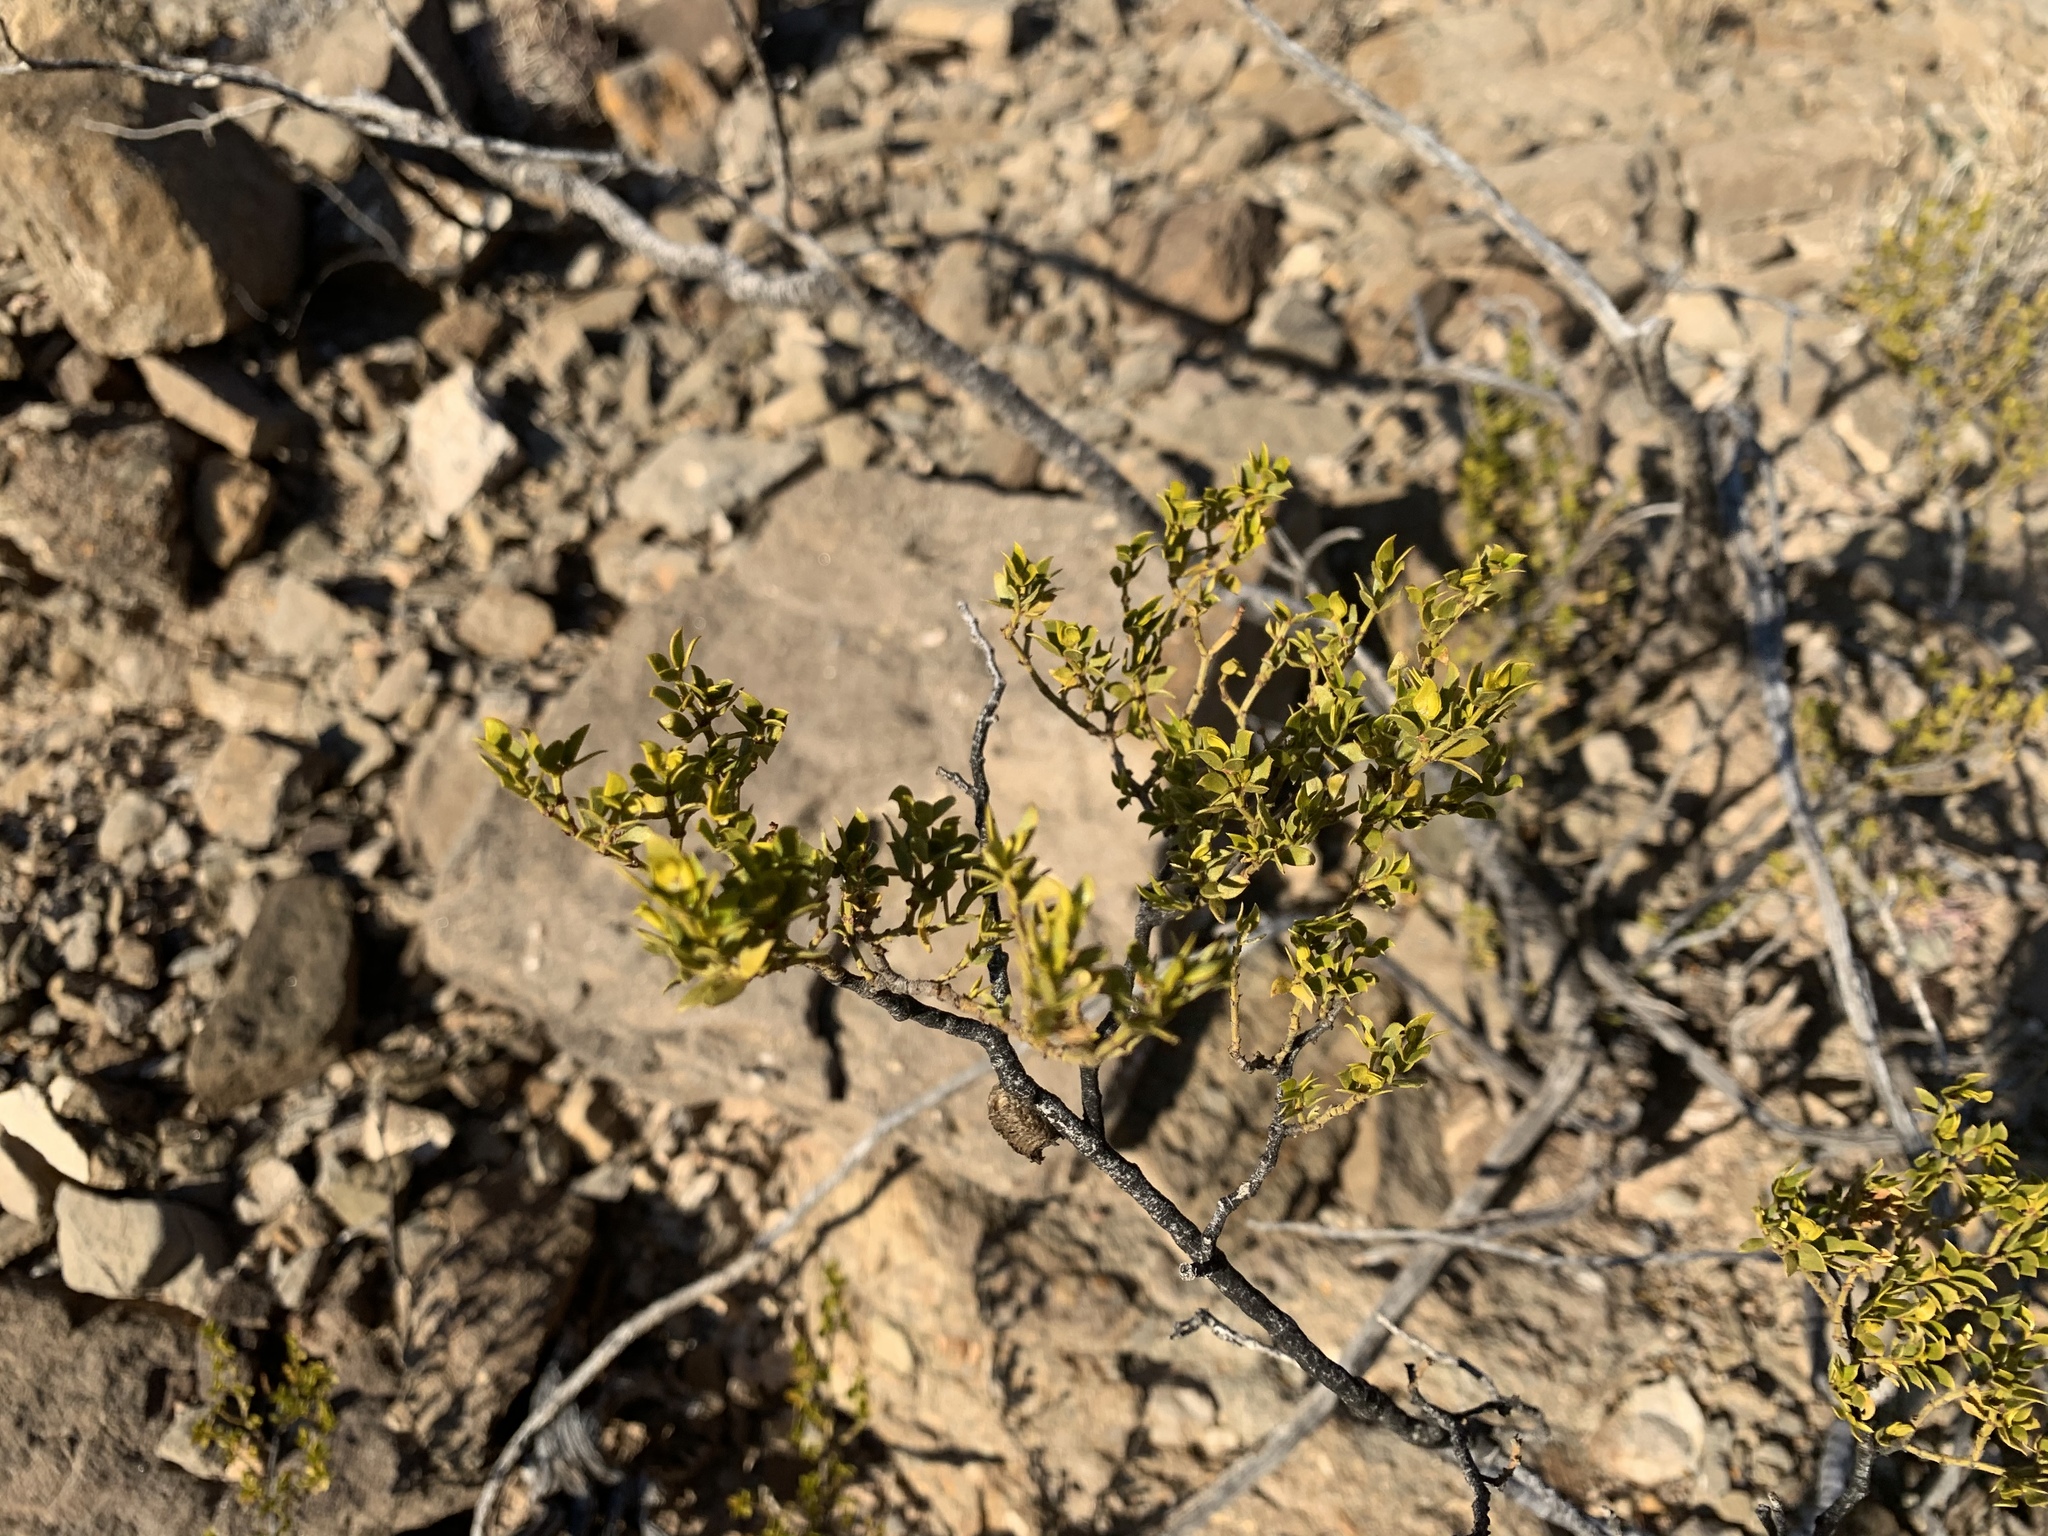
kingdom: Plantae
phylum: Tracheophyta
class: Magnoliopsida
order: Zygophyllales
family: Zygophyllaceae
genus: Larrea
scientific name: Larrea tridentata
